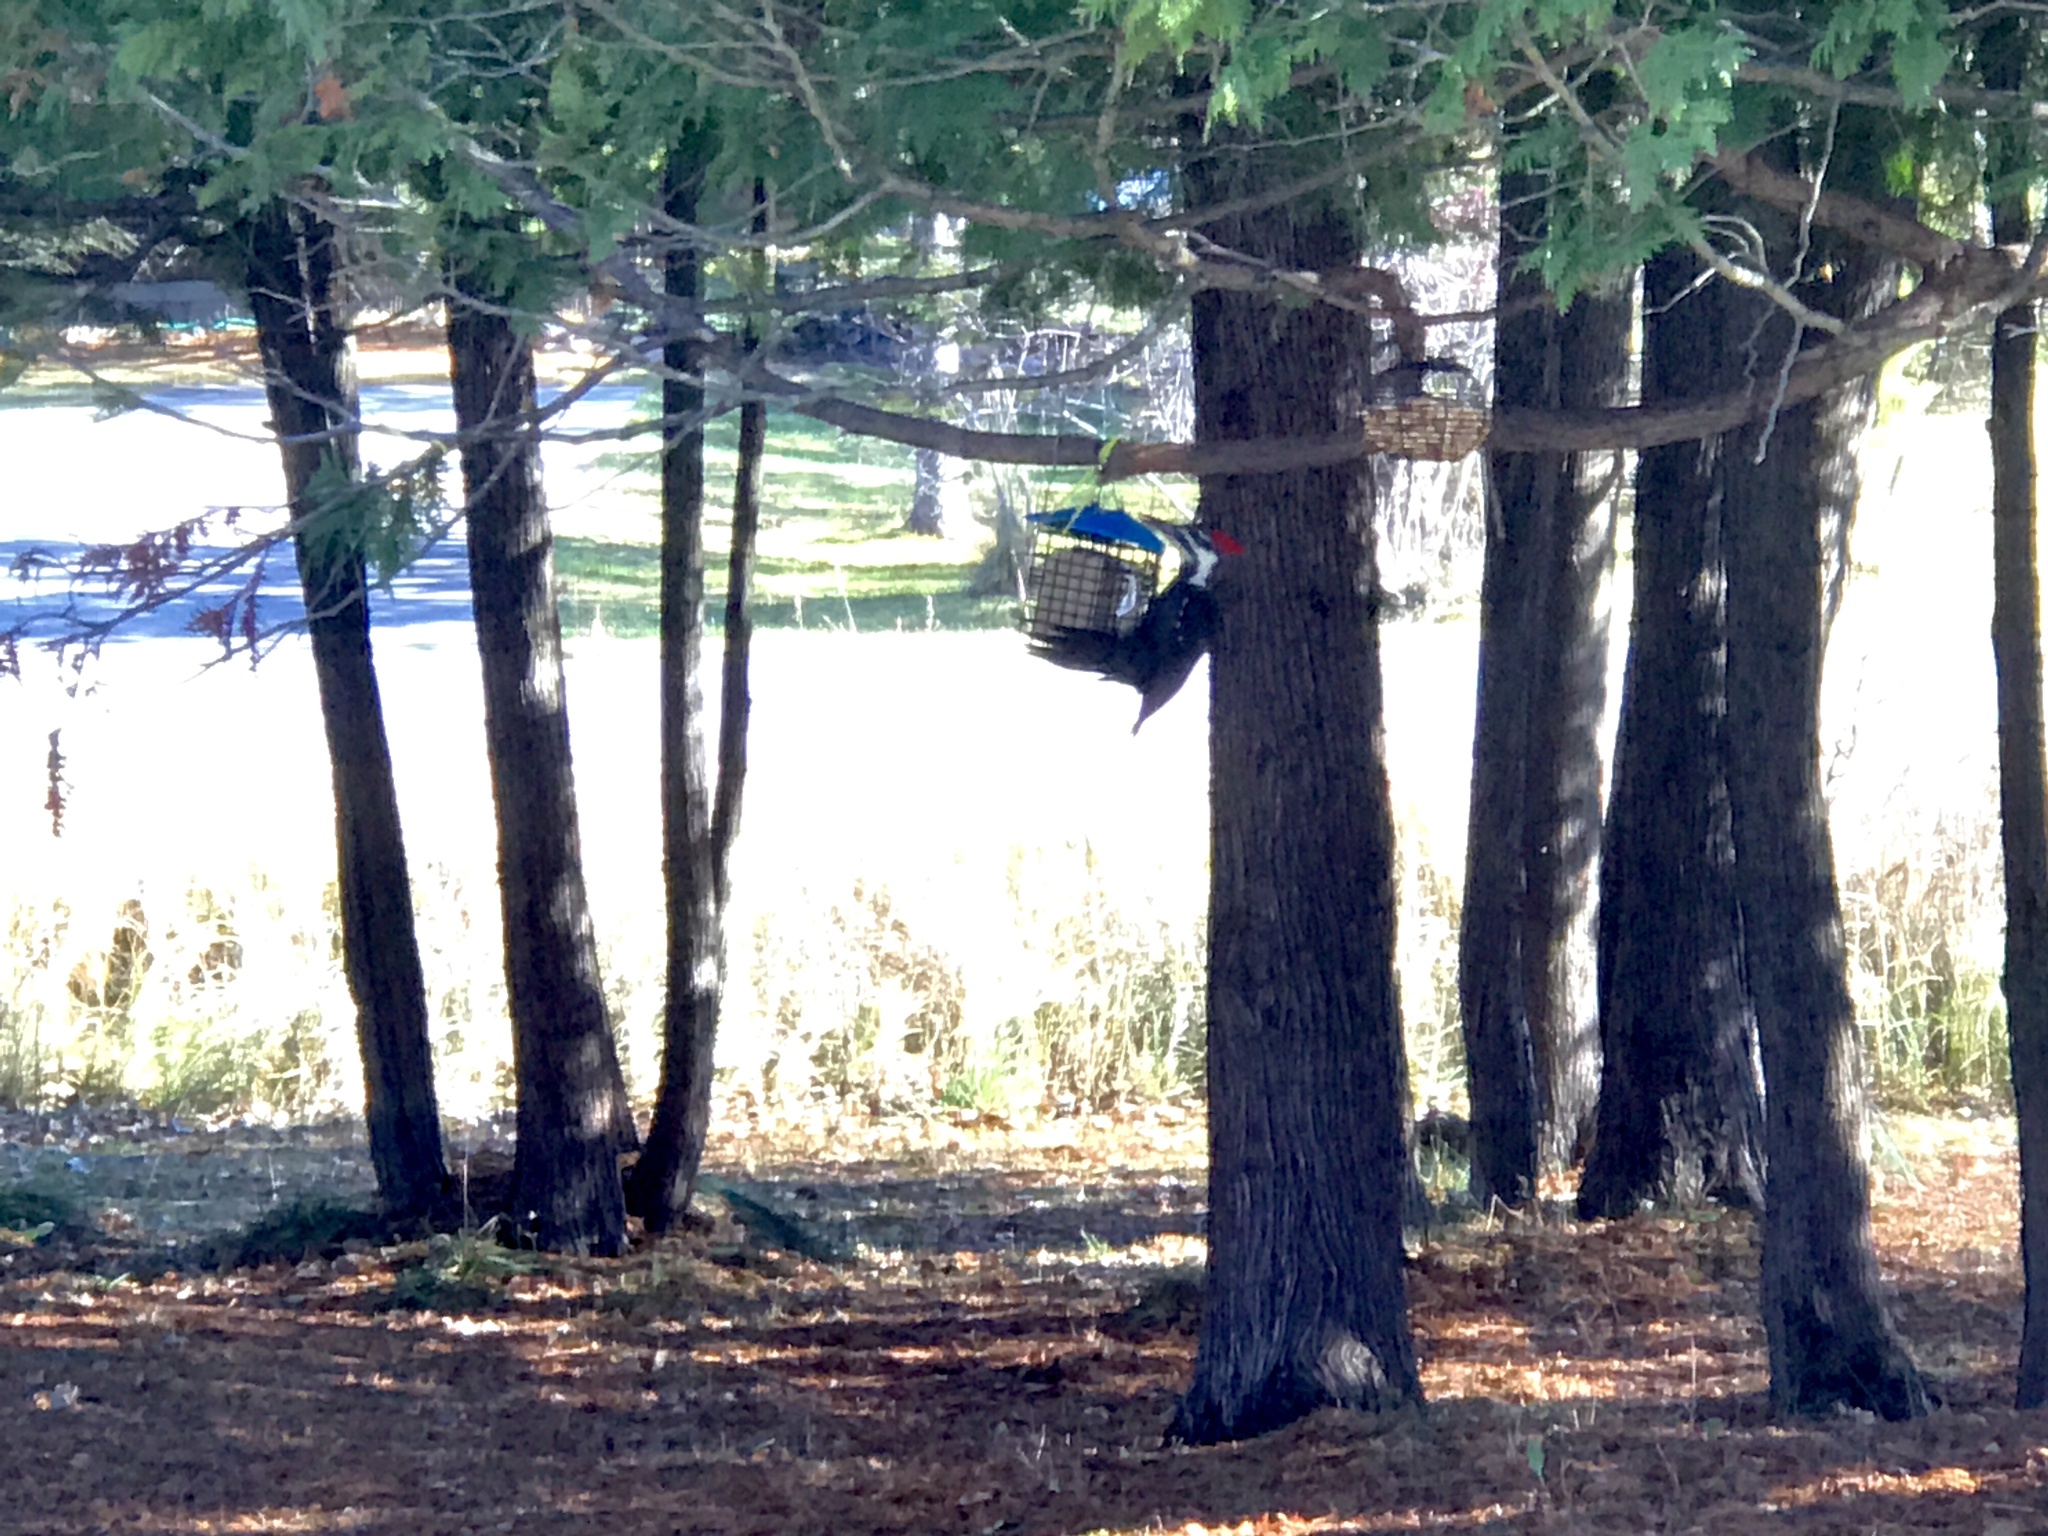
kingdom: Animalia
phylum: Chordata
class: Aves
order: Piciformes
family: Picidae
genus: Dryocopus
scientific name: Dryocopus pileatus
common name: Pileated woodpecker
